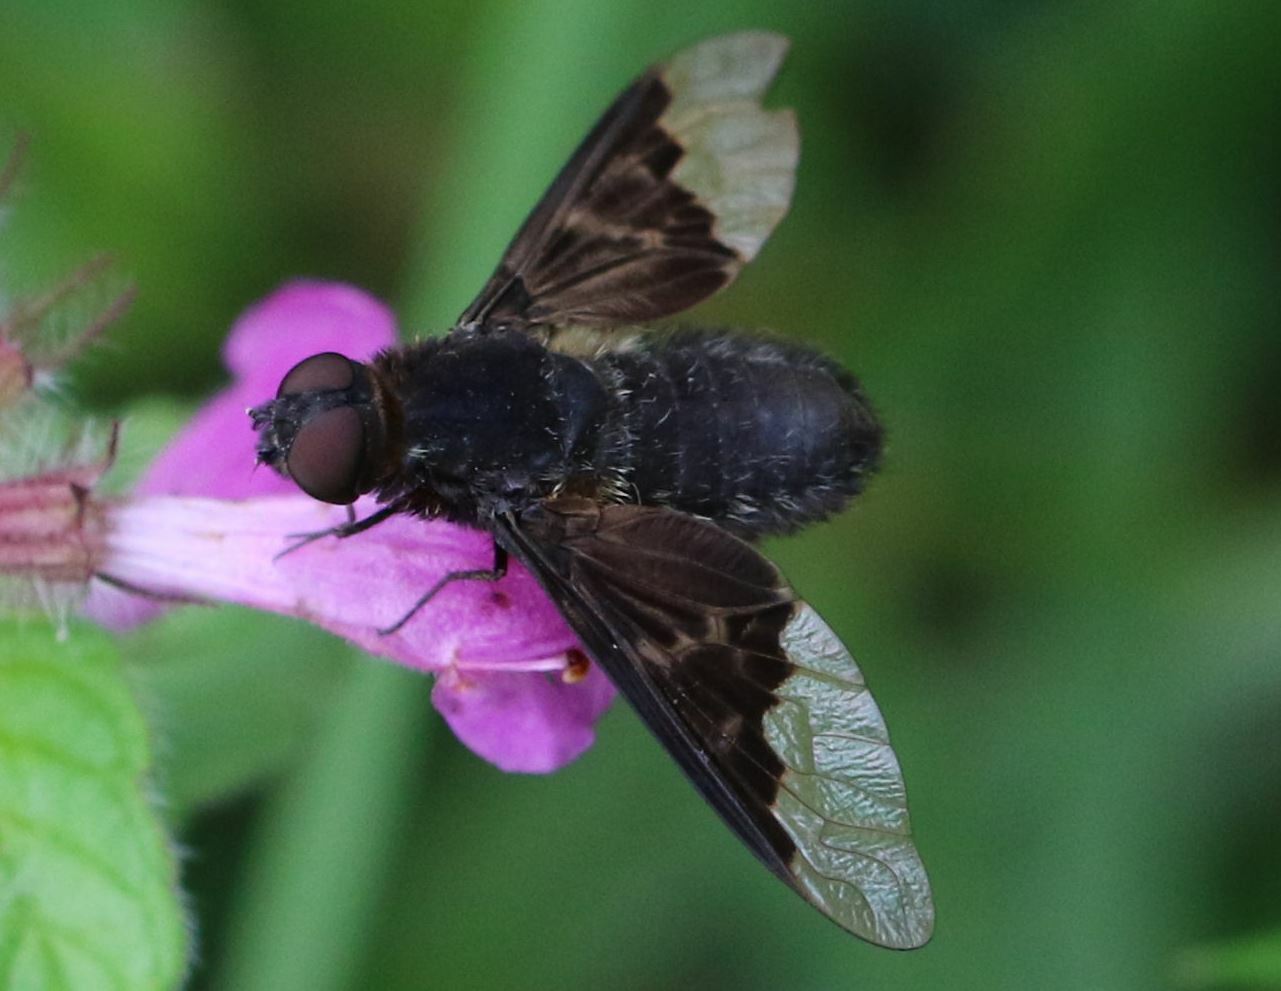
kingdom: Animalia
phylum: Arthropoda
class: Insecta
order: Diptera
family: Bombyliidae
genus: Hemipenthes
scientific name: Hemipenthes morio
